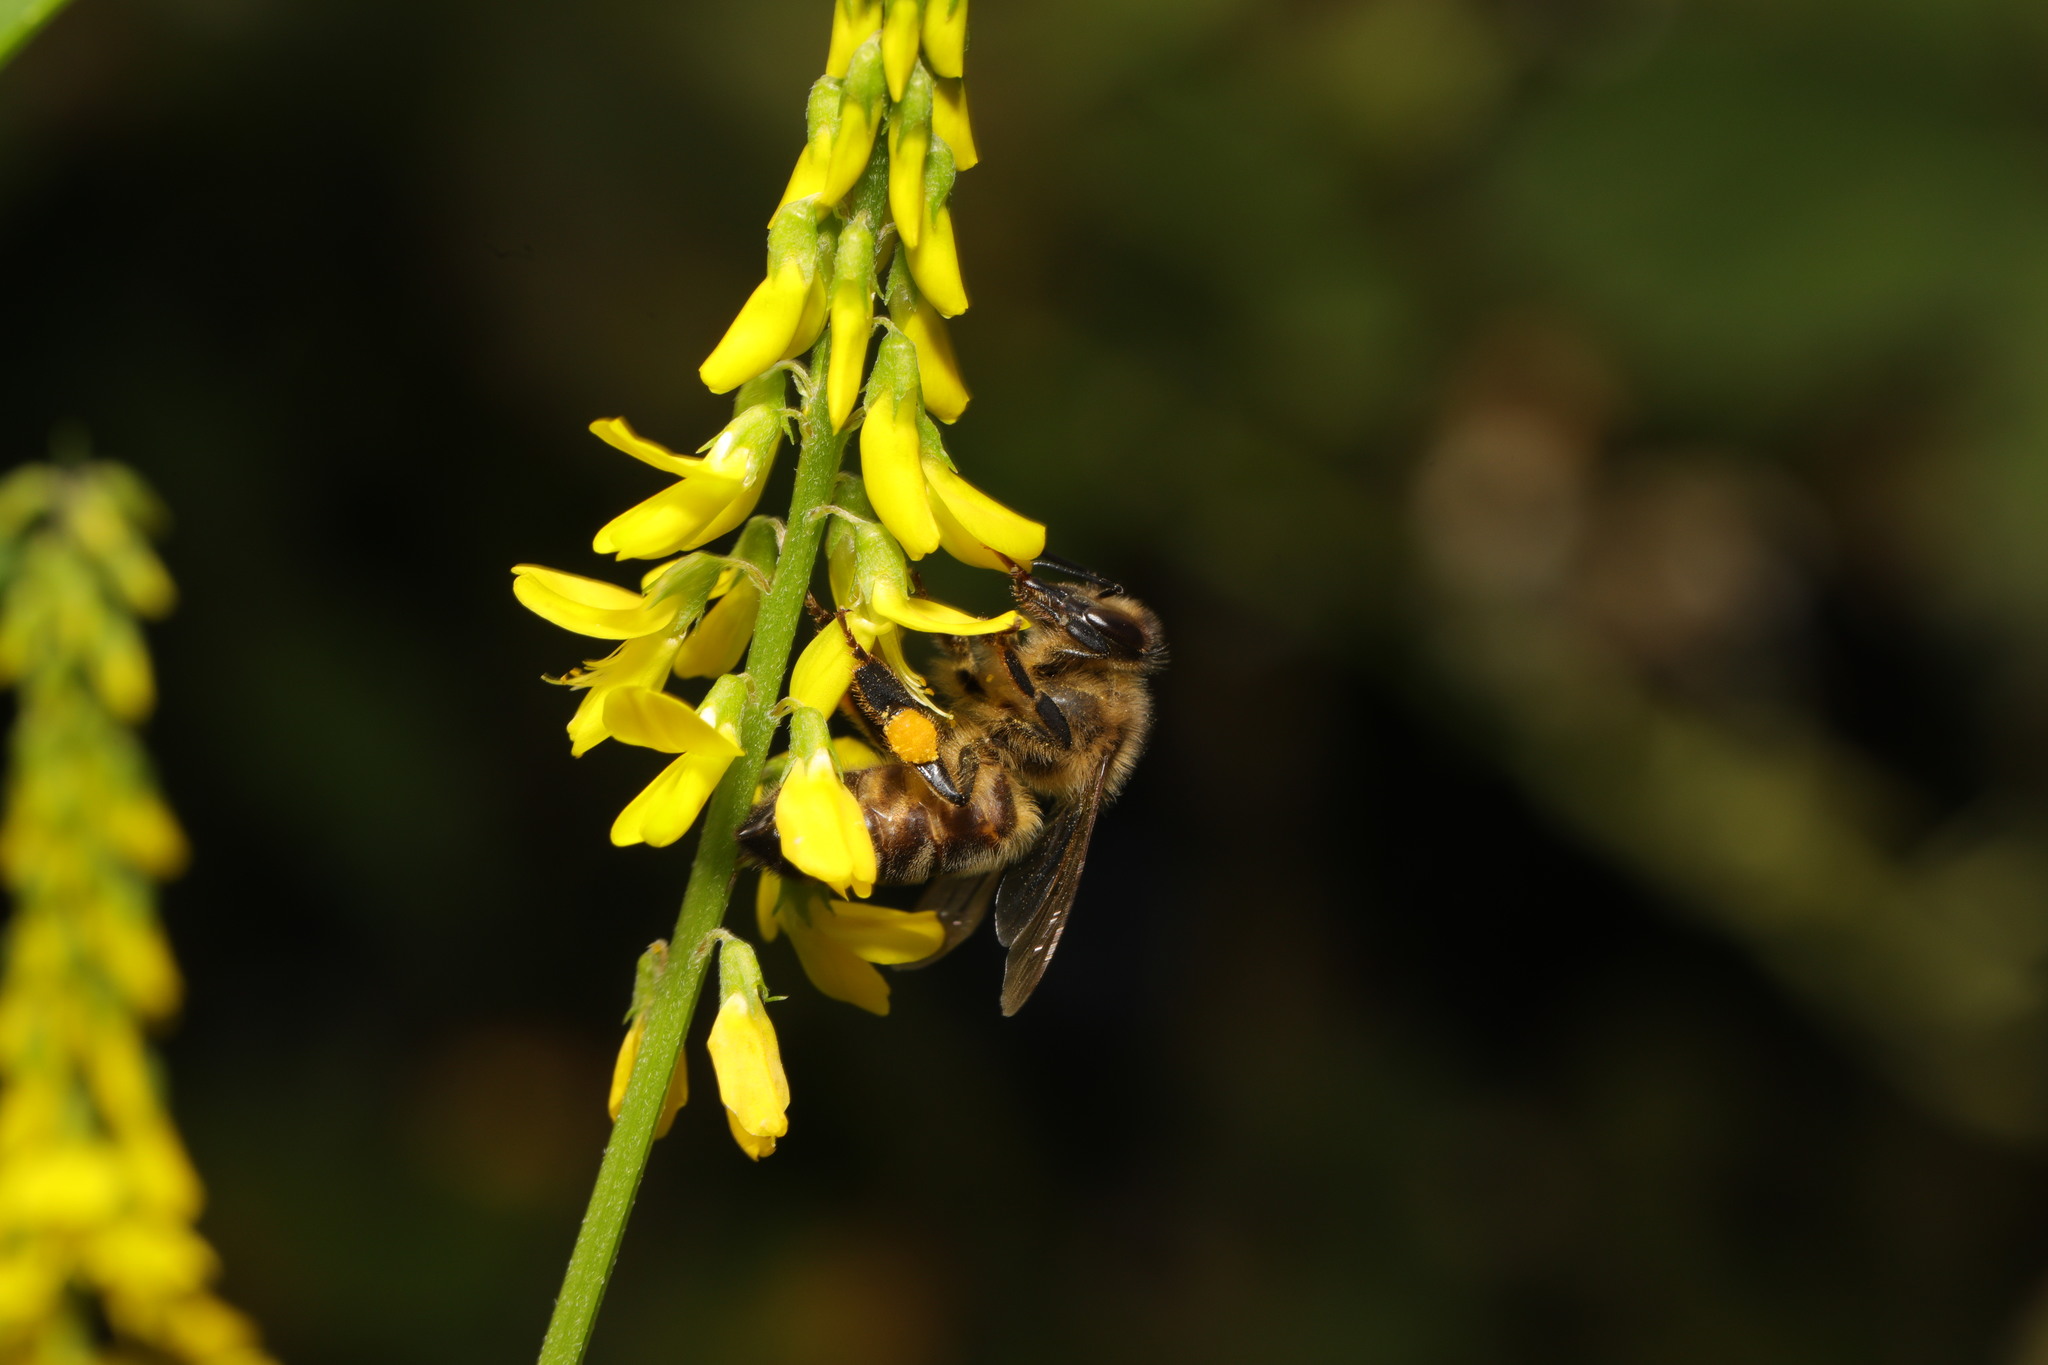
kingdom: Animalia
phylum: Arthropoda
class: Insecta
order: Hymenoptera
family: Apidae
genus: Apis
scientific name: Apis mellifera
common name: Honey bee
